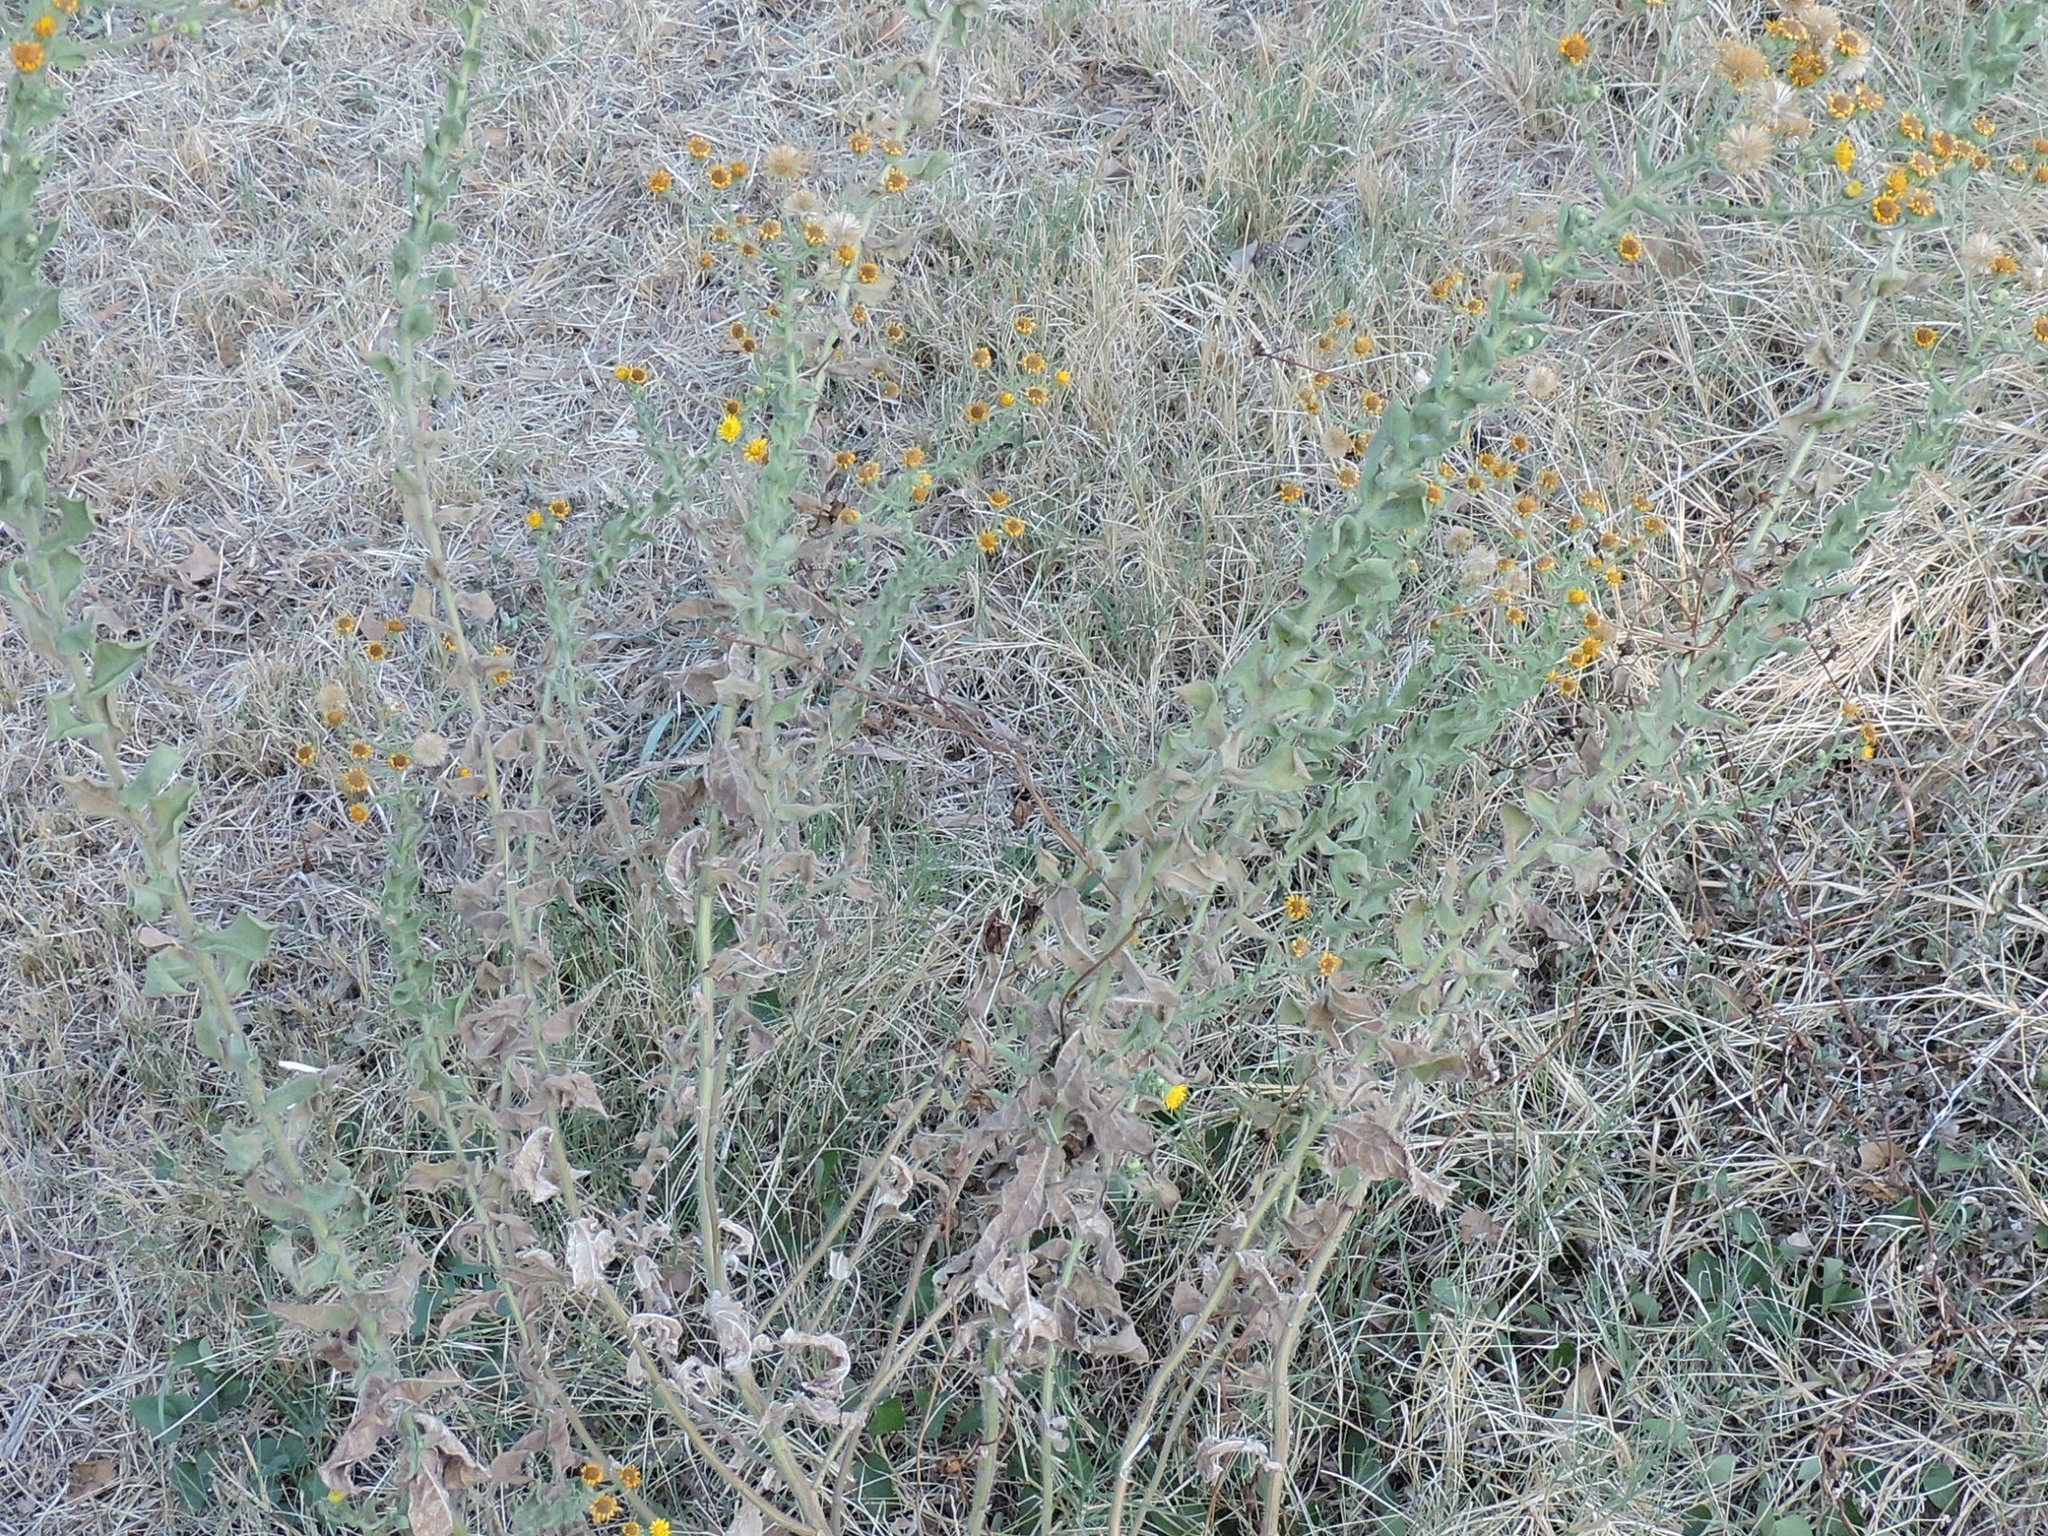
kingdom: Plantae
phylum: Tracheophyta
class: Magnoliopsida
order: Asterales
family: Asteraceae
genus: Heterotheca
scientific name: Heterotheca subaxillaris
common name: Camphorweed
